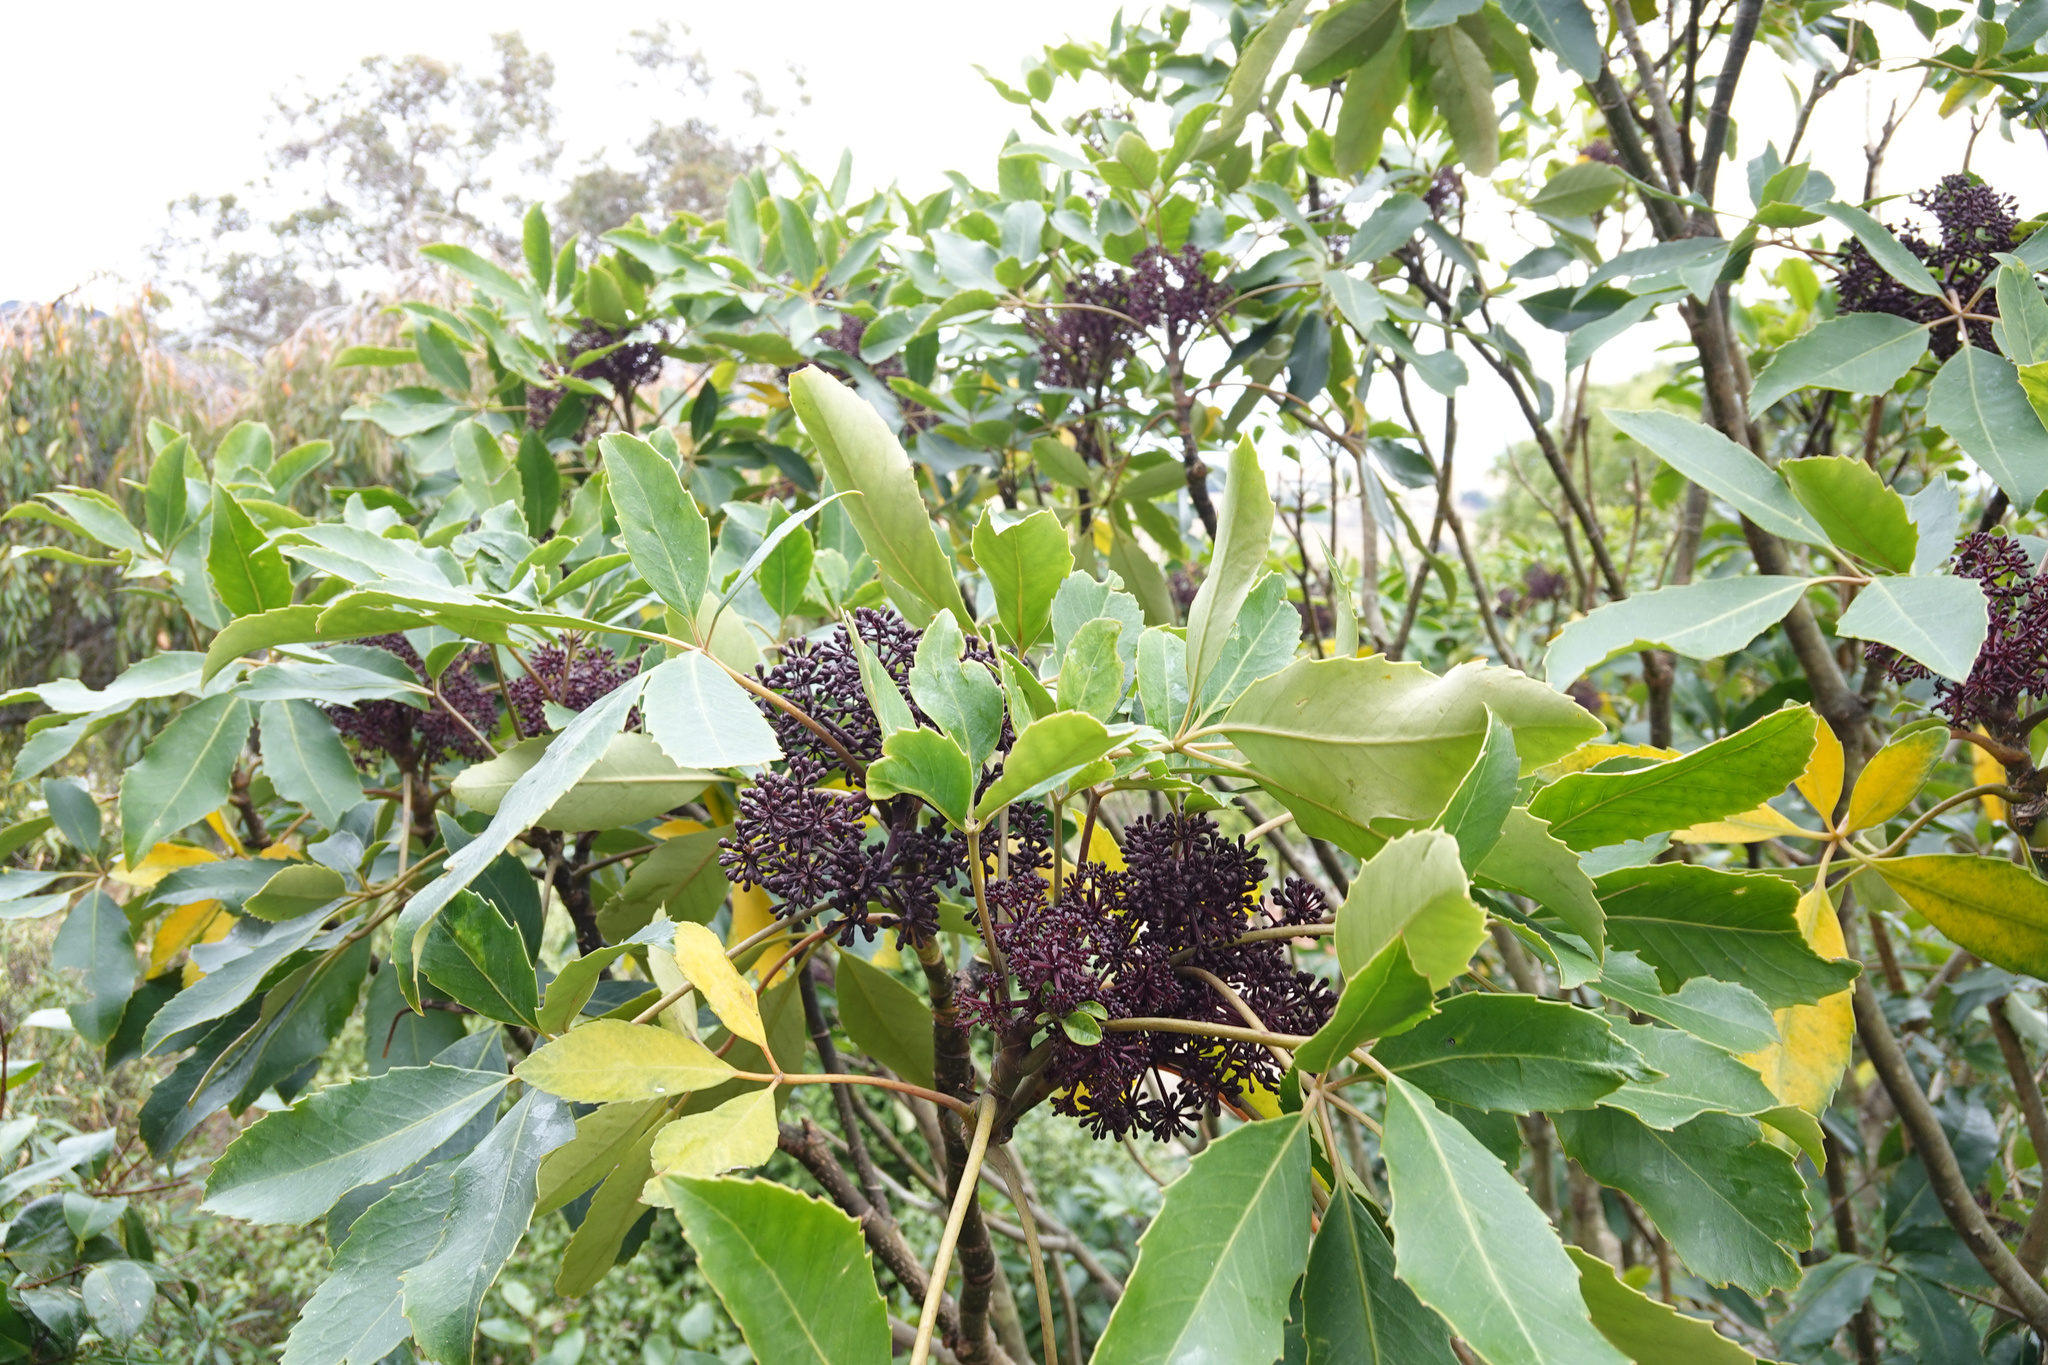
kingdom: Plantae
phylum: Tracheophyta
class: Magnoliopsida
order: Apiales
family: Araliaceae
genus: Neopanax
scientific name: Neopanax arboreus
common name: Five-fingers
